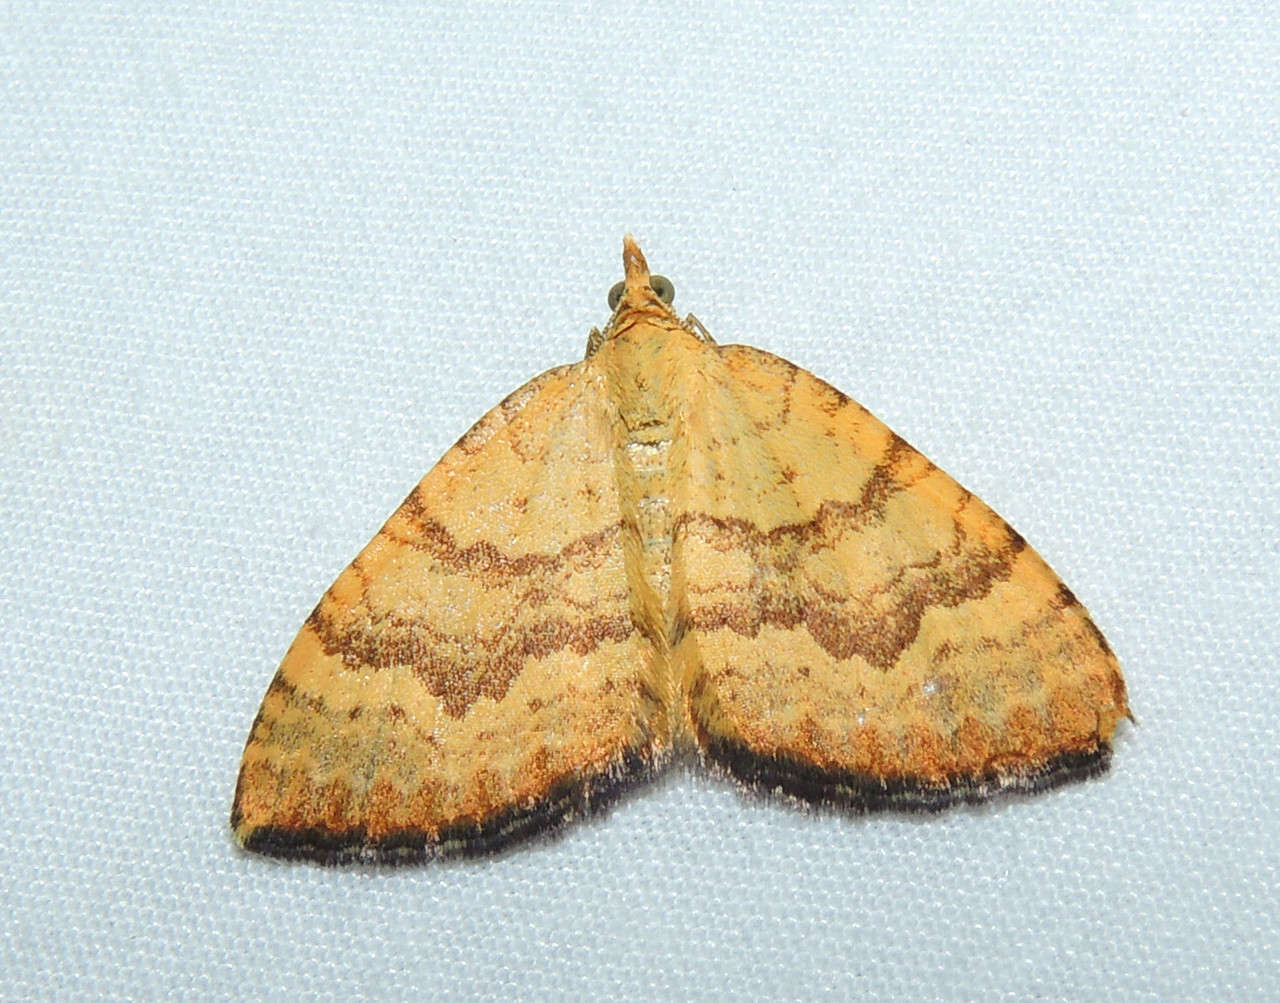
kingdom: Animalia
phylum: Arthropoda
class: Insecta
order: Lepidoptera
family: Geometridae
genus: Chrysolarentia
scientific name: Chrysolarentia
